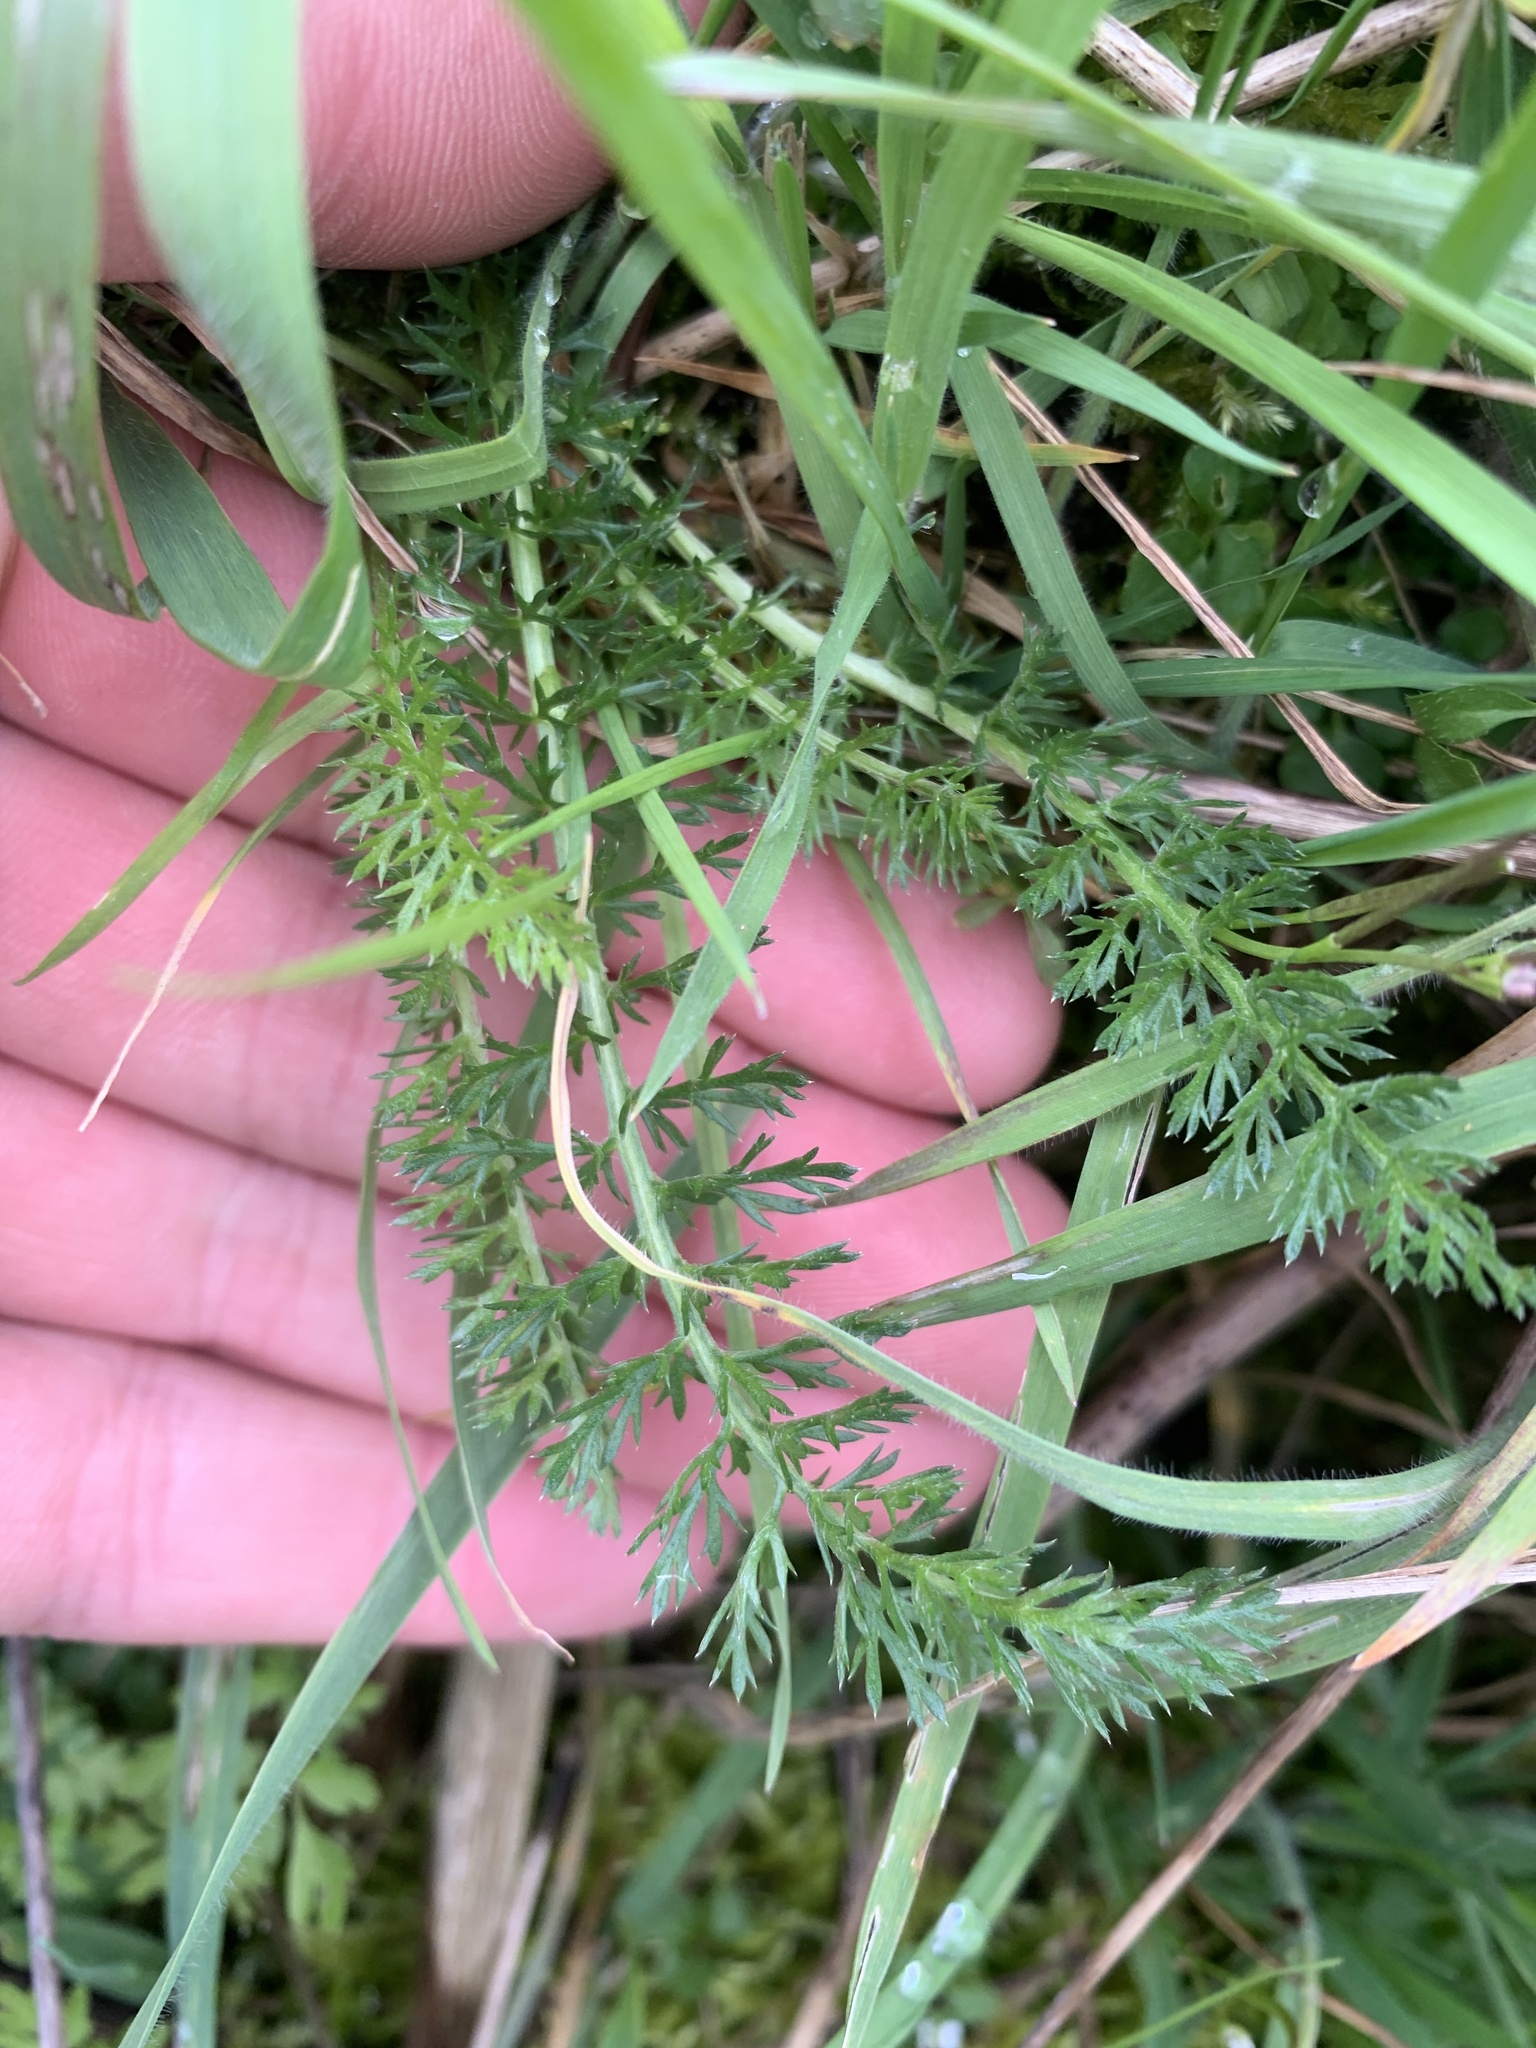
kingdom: Plantae
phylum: Tracheophyta
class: Magnoliopsida
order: Asterales
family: Asteraceae
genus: Achillea
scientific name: Achillea millefolium
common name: Yarrow
